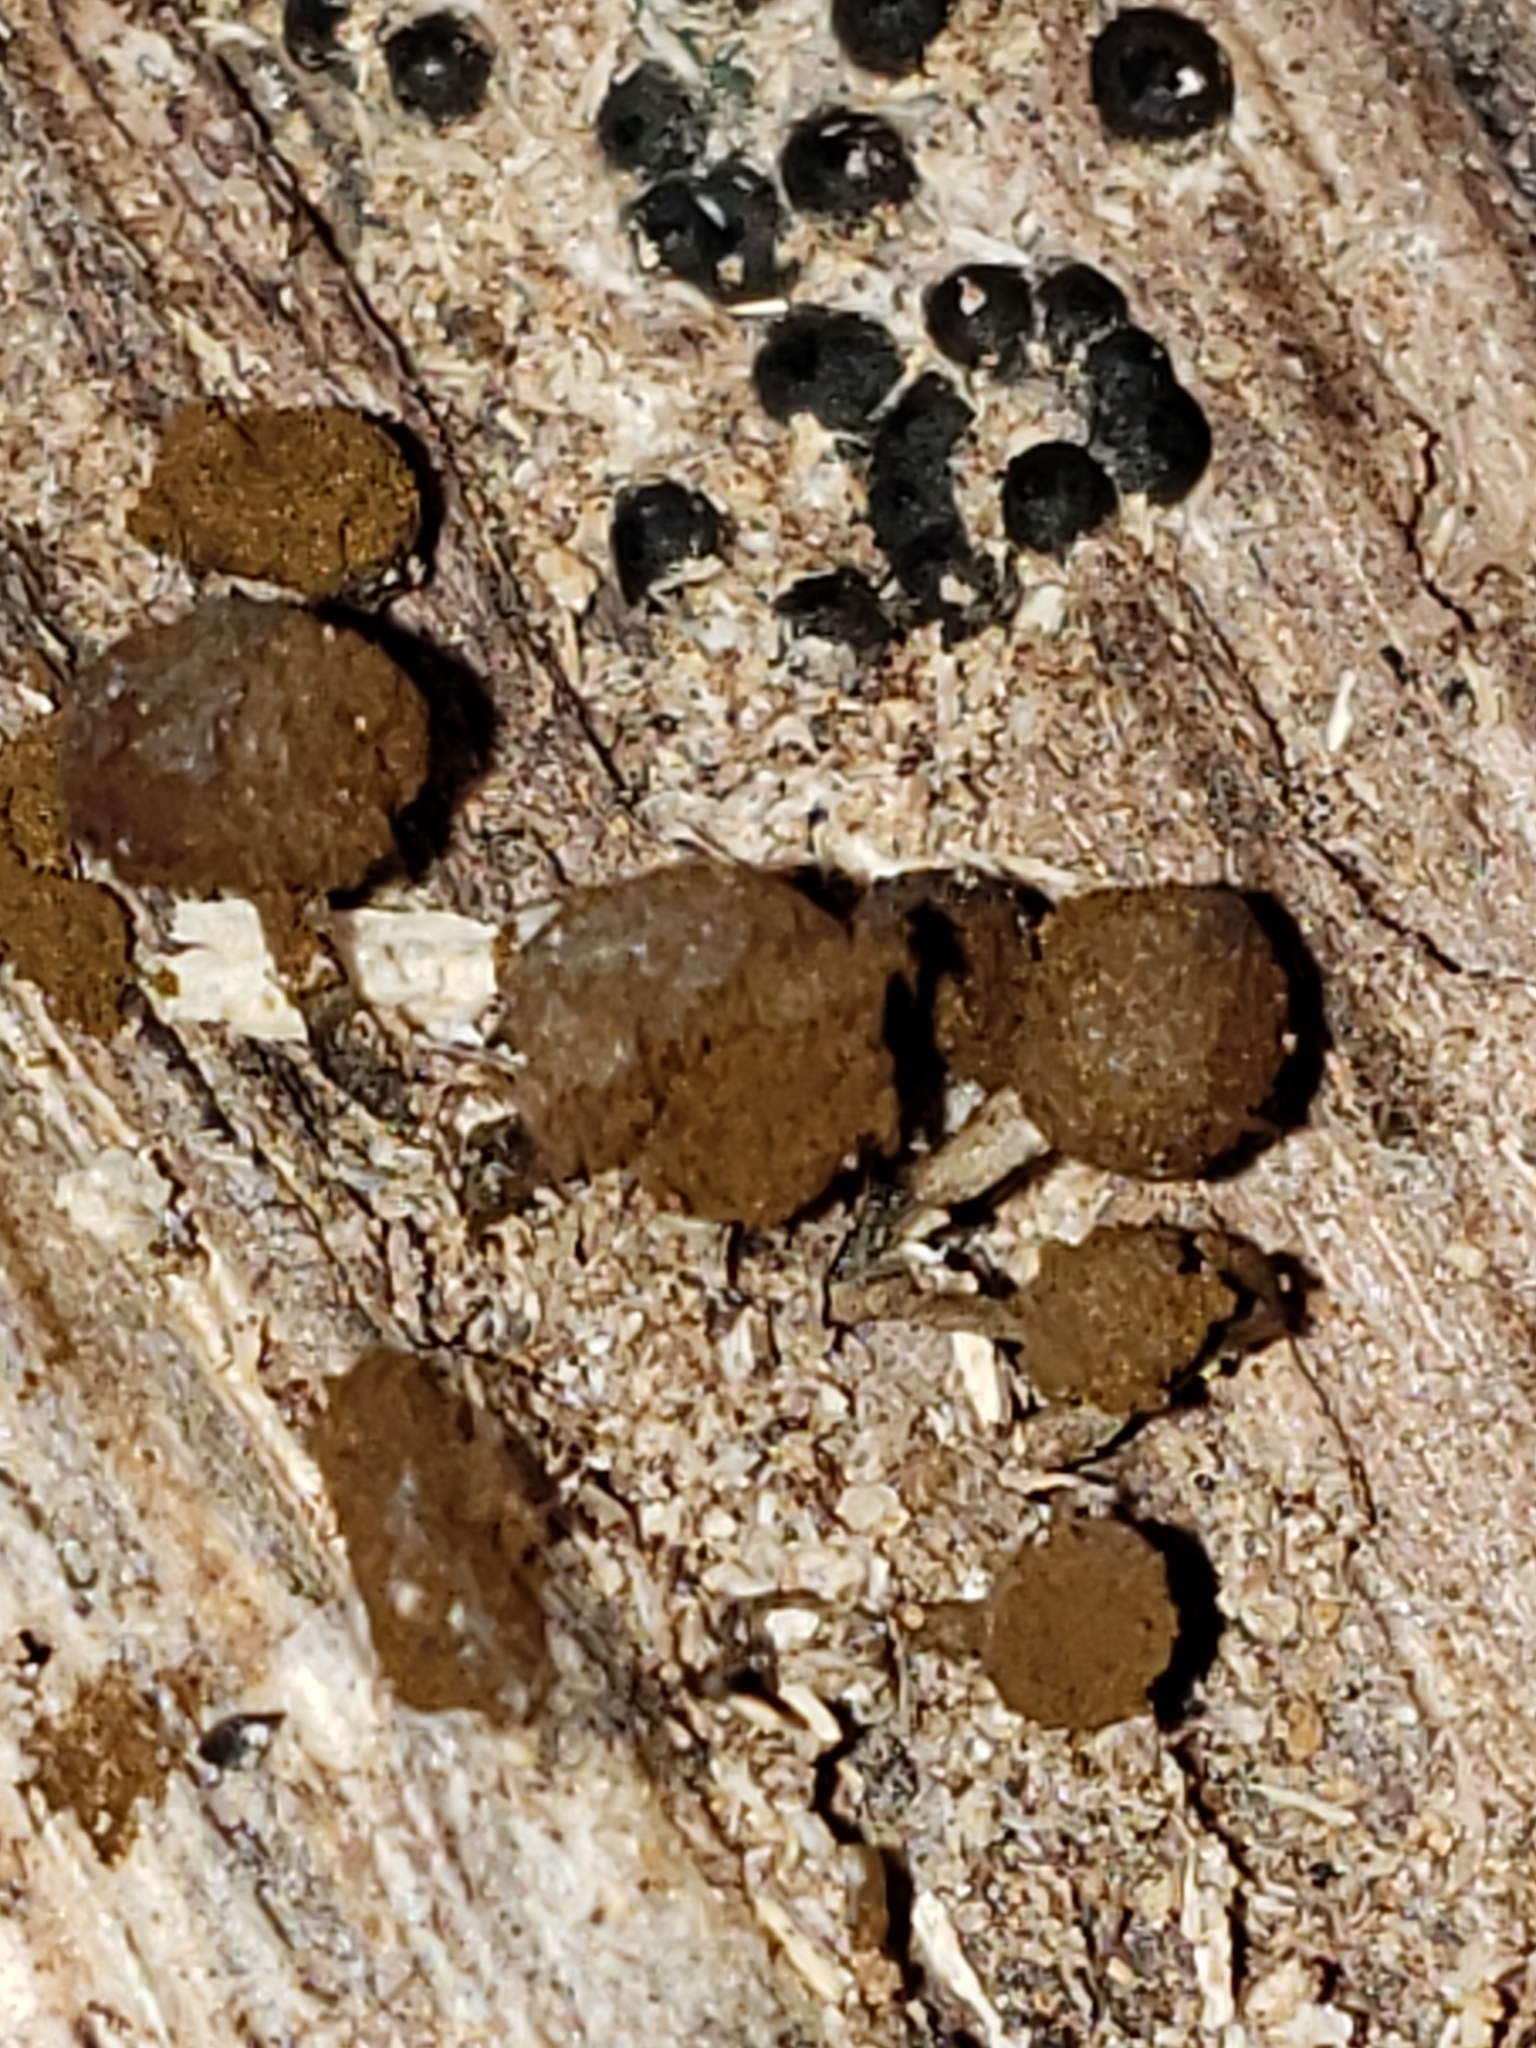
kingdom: Fungi
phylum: Basidiomycota
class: Atractiellomycetes
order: Atractiellales
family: Phleogenaceae
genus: Phleogena
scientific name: Phleogena faginea
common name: Fenugreek stalkball
